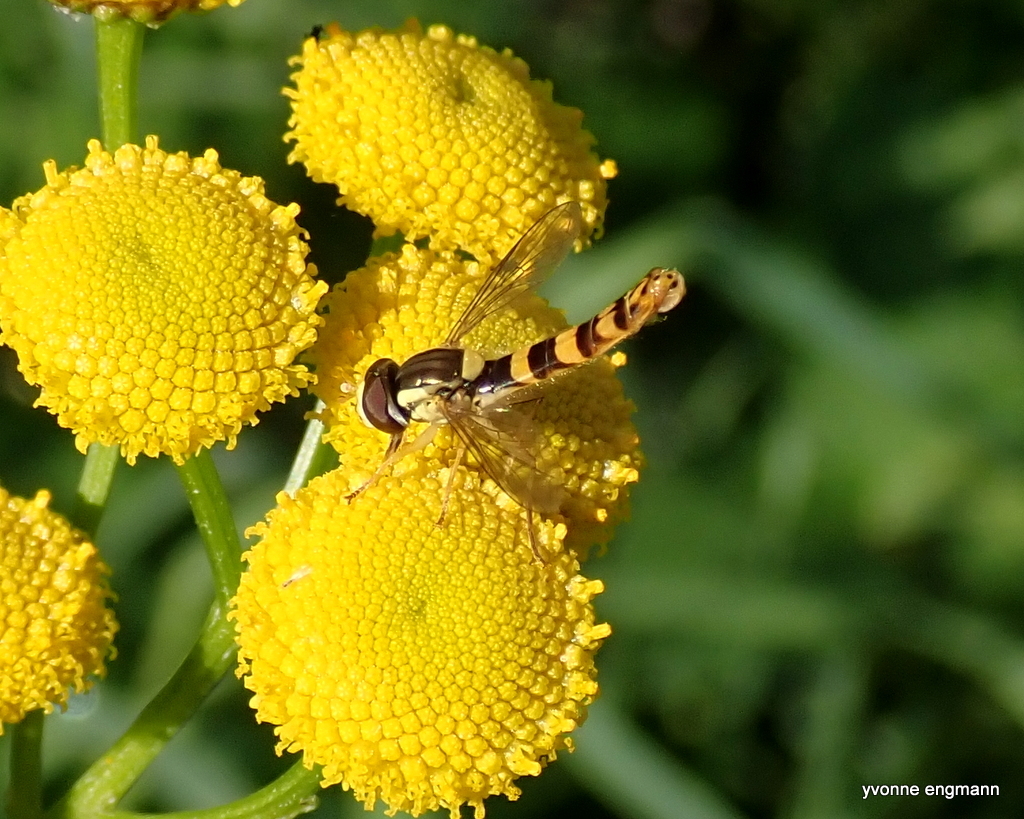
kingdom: Animalia
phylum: Arthropoda
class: Insecta
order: Diptera
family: Syrphidae
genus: Sphaerophoria
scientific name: Sphaerophoria scripta
